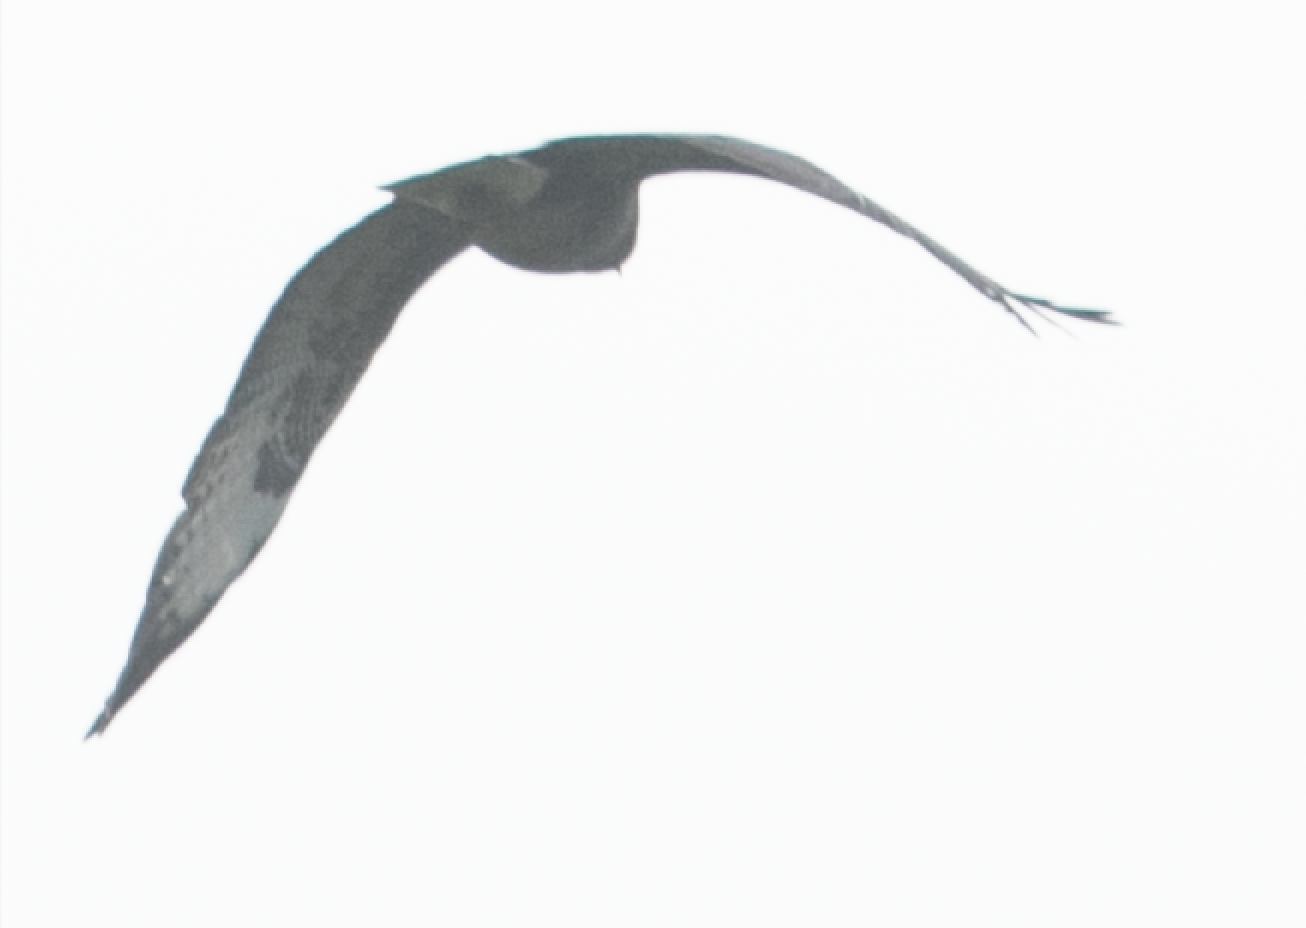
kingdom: Animalia
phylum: Chordata
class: Aves
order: Accipitriformes
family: Accipitridae
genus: Buteo
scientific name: Buteo buteo
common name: Common buzzard
